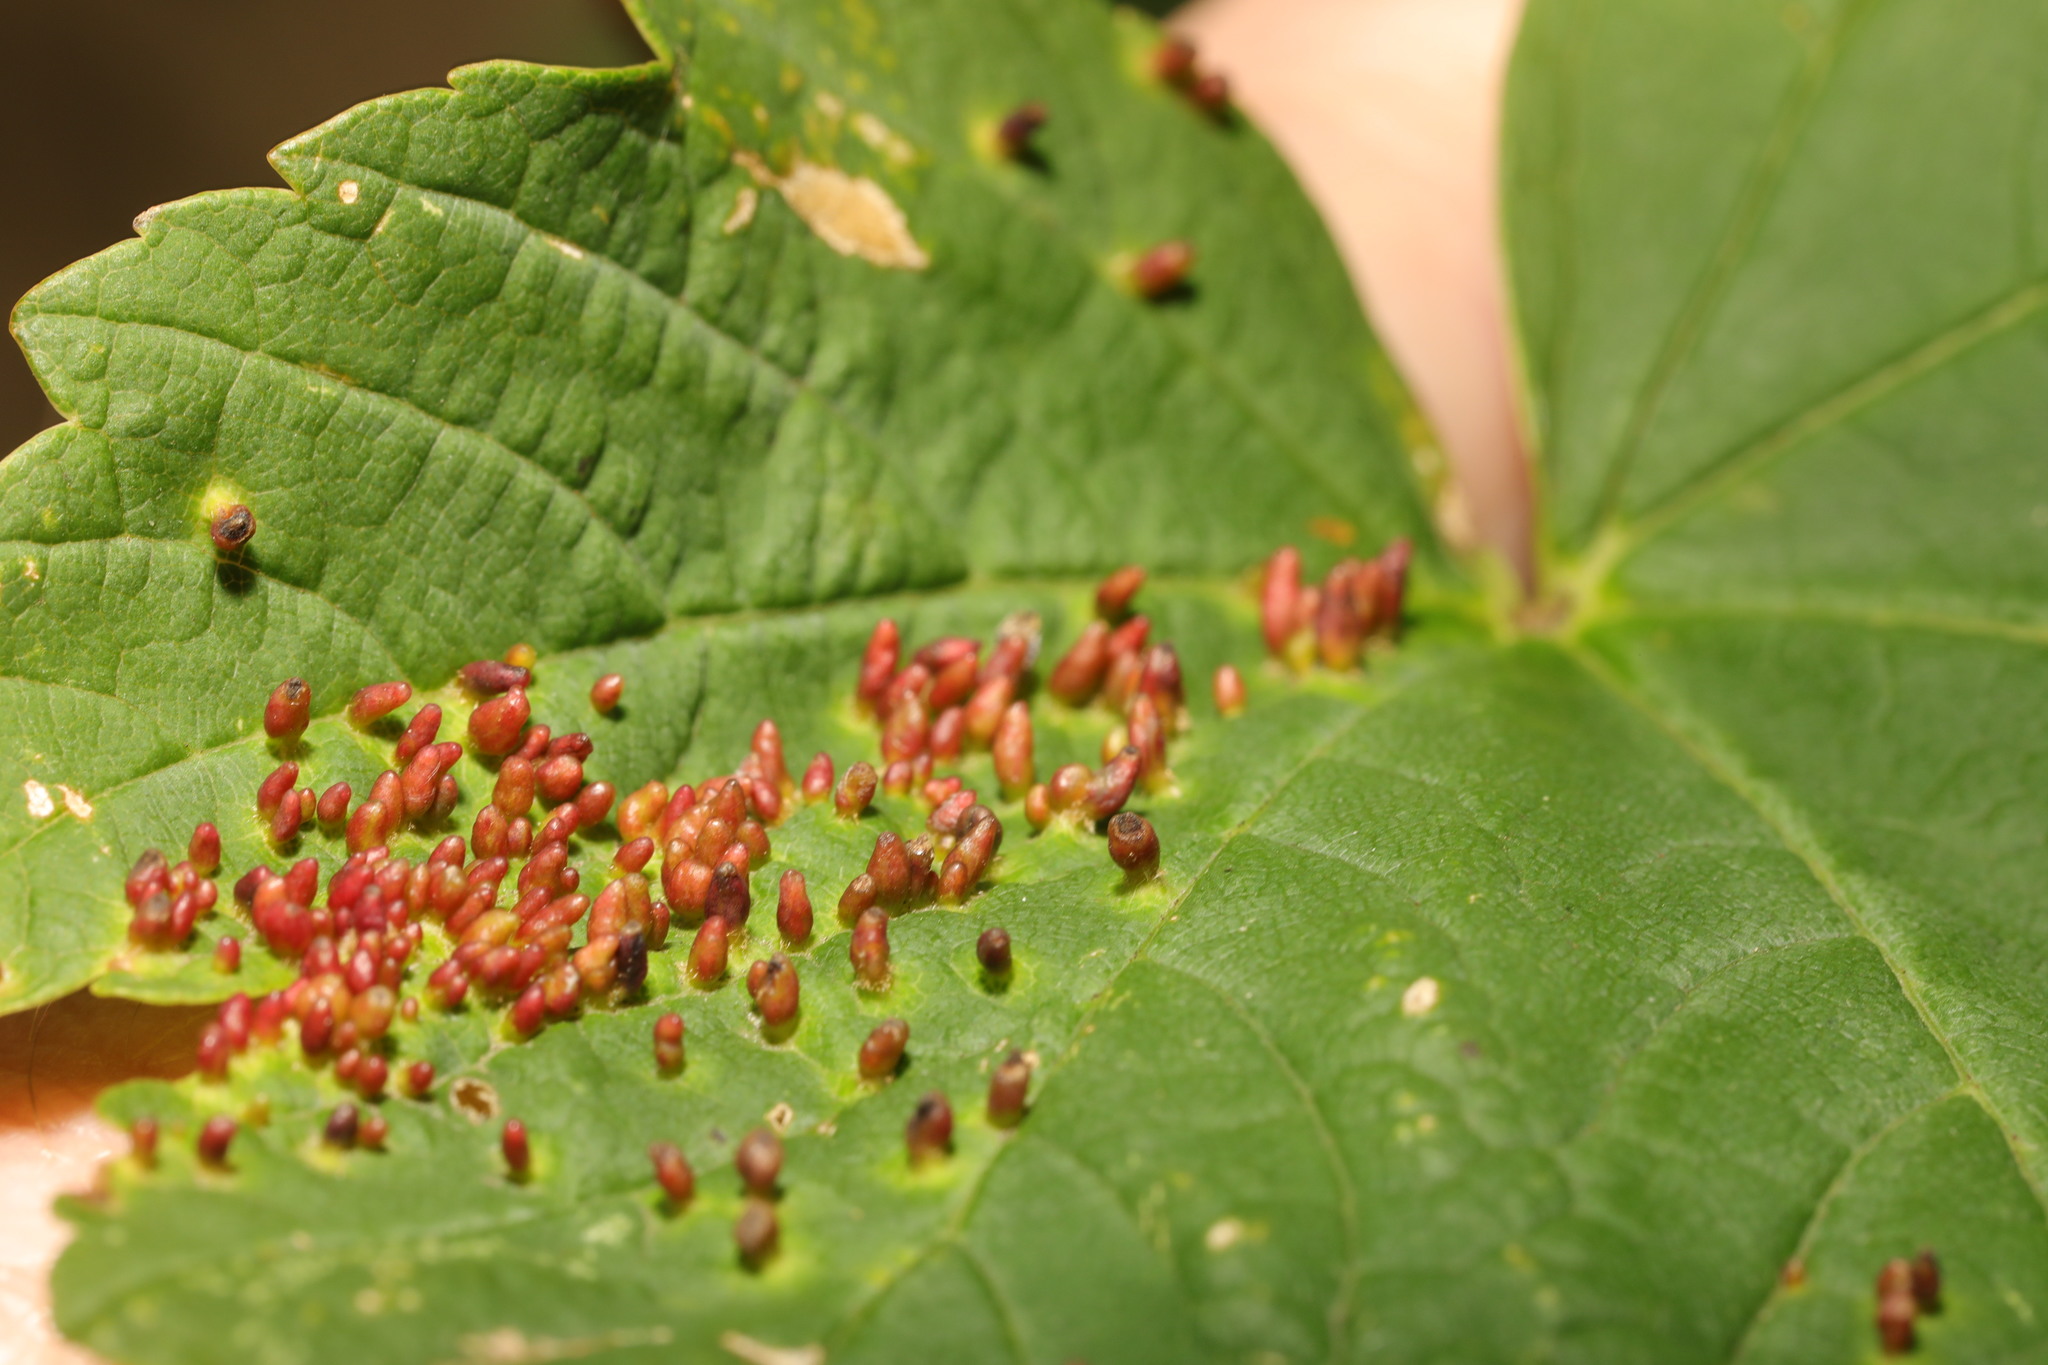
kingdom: Animalia
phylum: Arthropoda
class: Arachnida
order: Trombidiformes
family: Eriophyidae
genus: Aceria
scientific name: Aceria cephaloneus
